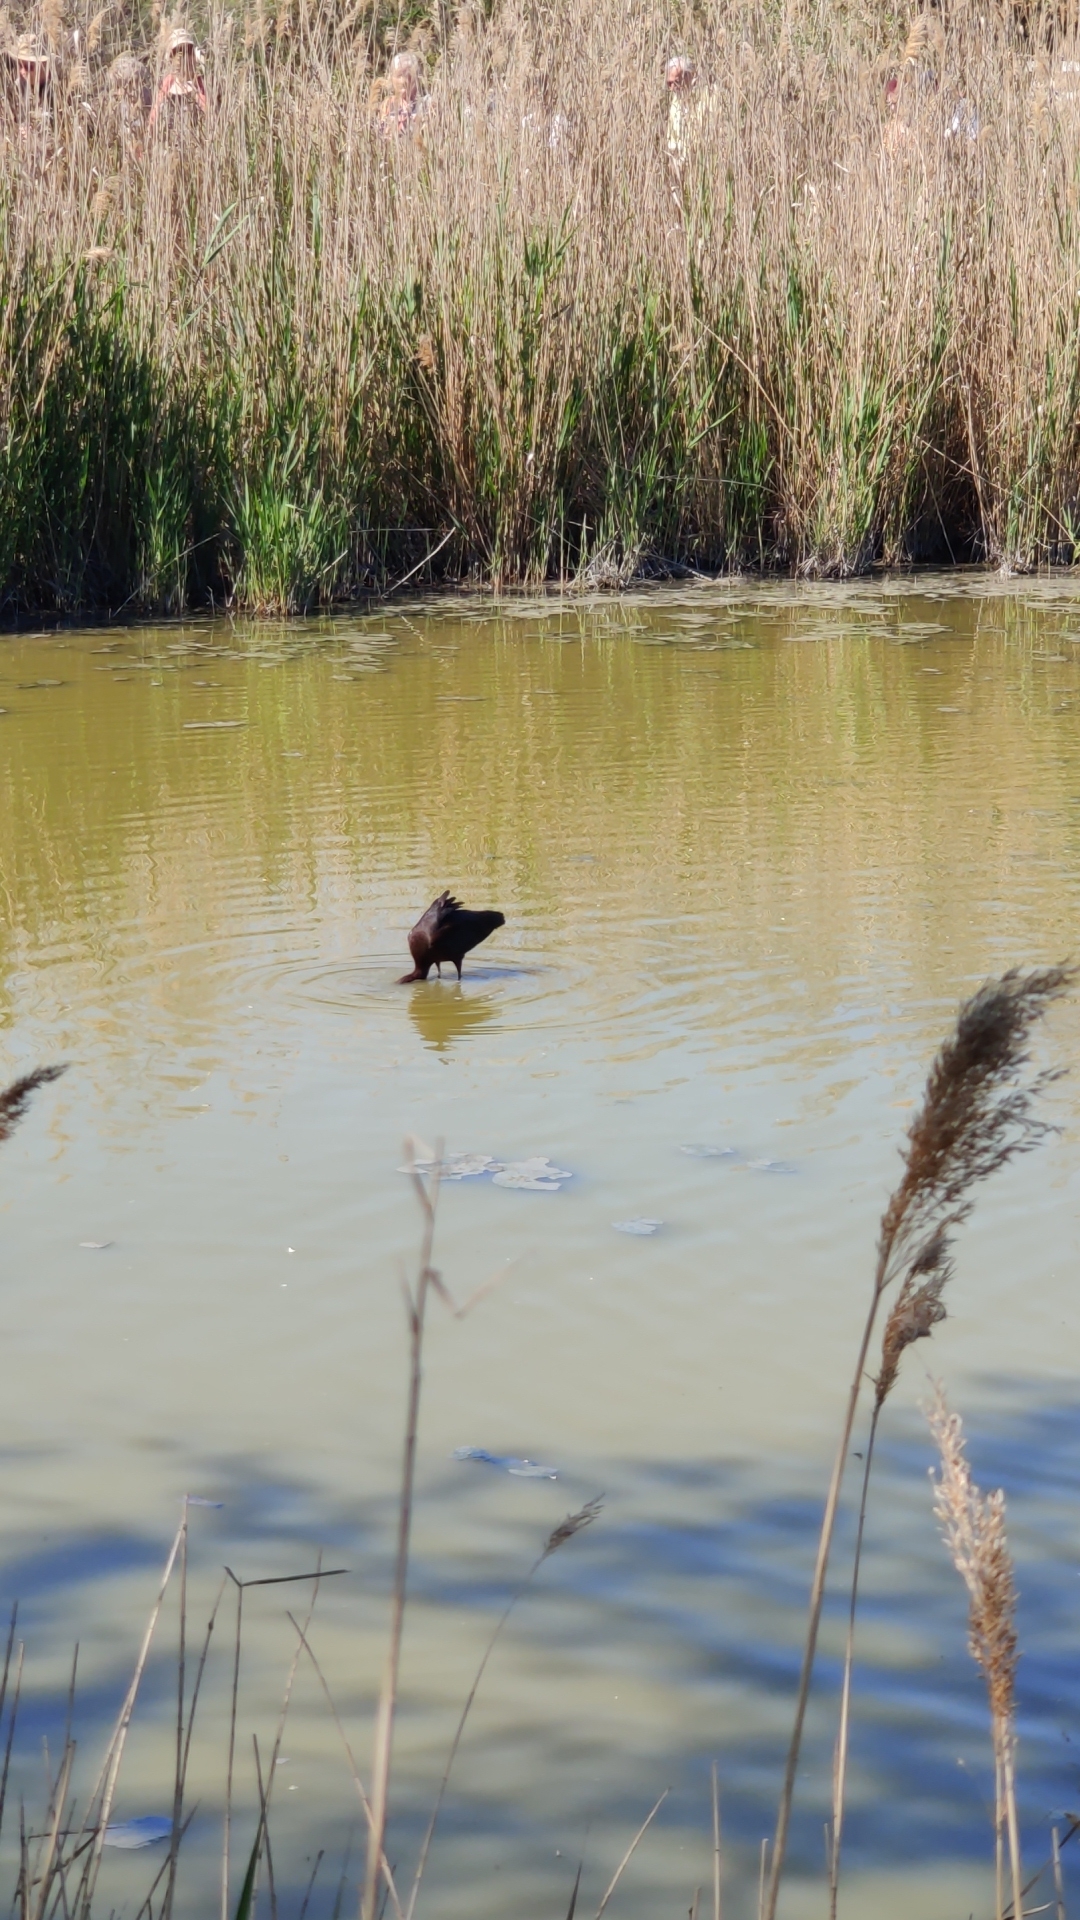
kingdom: Animalia
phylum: Chordata
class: Aves
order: Pelecaniformes
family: Threskiornithidae
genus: Plegadis
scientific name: Plegadis falcinellus
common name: Glossy ibis
